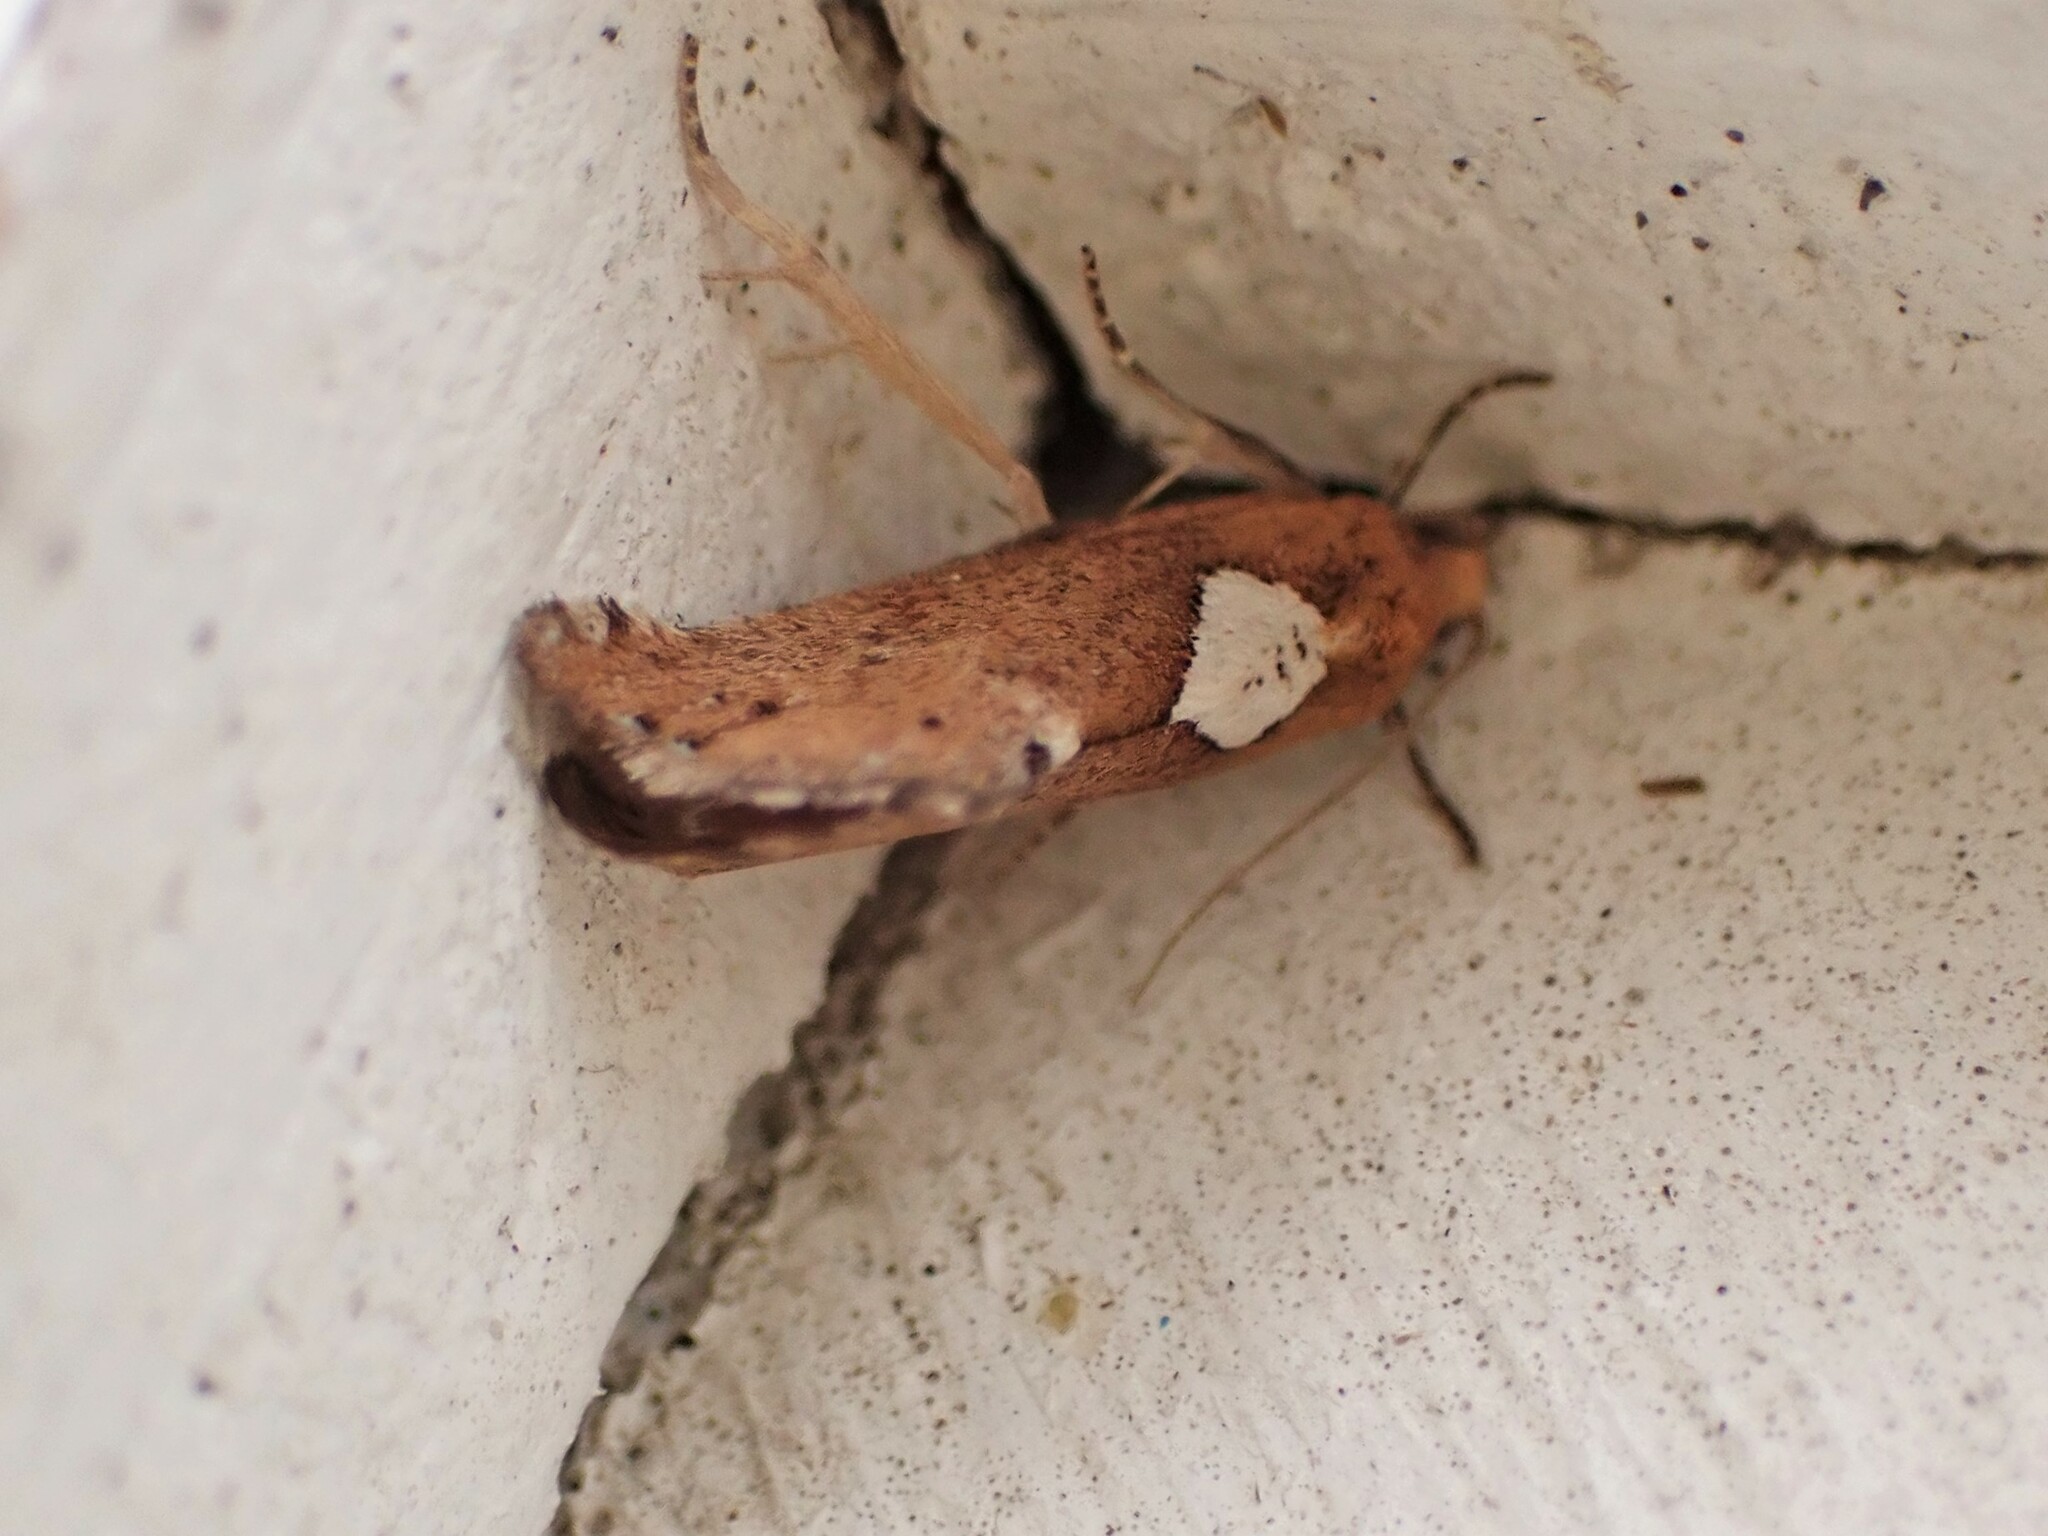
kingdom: Animalia
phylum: Arthropoda
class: Insecta
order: Lepidoptera
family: Tortricidae
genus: Pyrgotis
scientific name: Pyrgotis pyramidias
